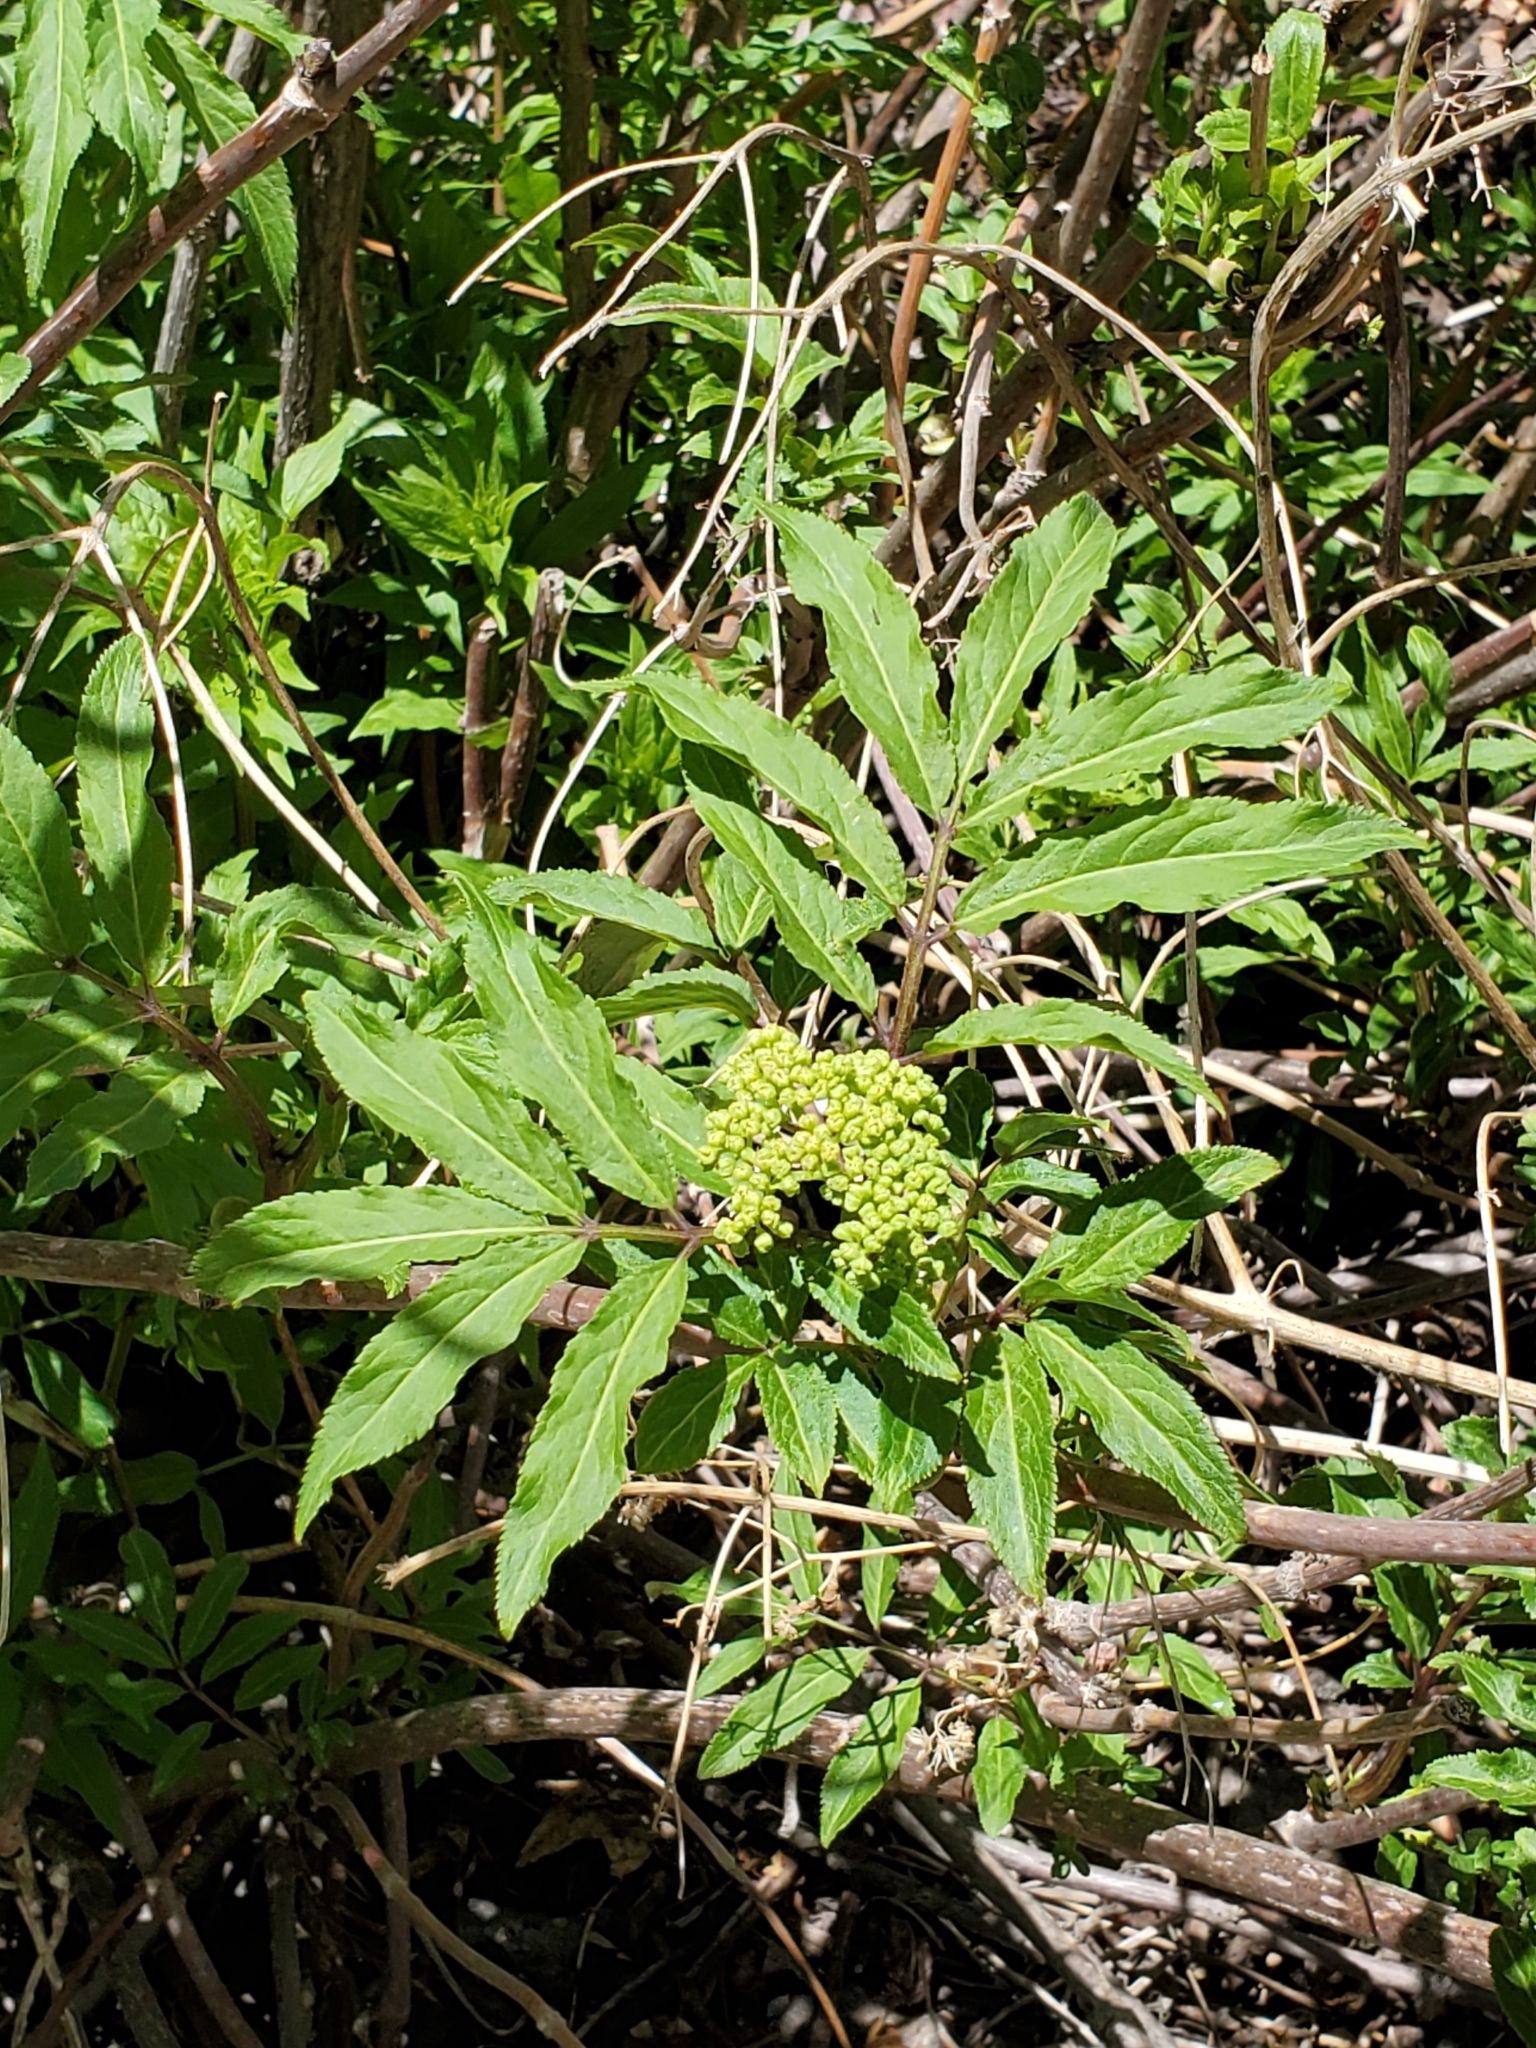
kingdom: Plantae
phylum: Tracheophyta
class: Magnoliopsida
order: Dipsacales
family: Viburnaceae
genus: Sambucus
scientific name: Sambucus racemosa
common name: Red-berried elder
